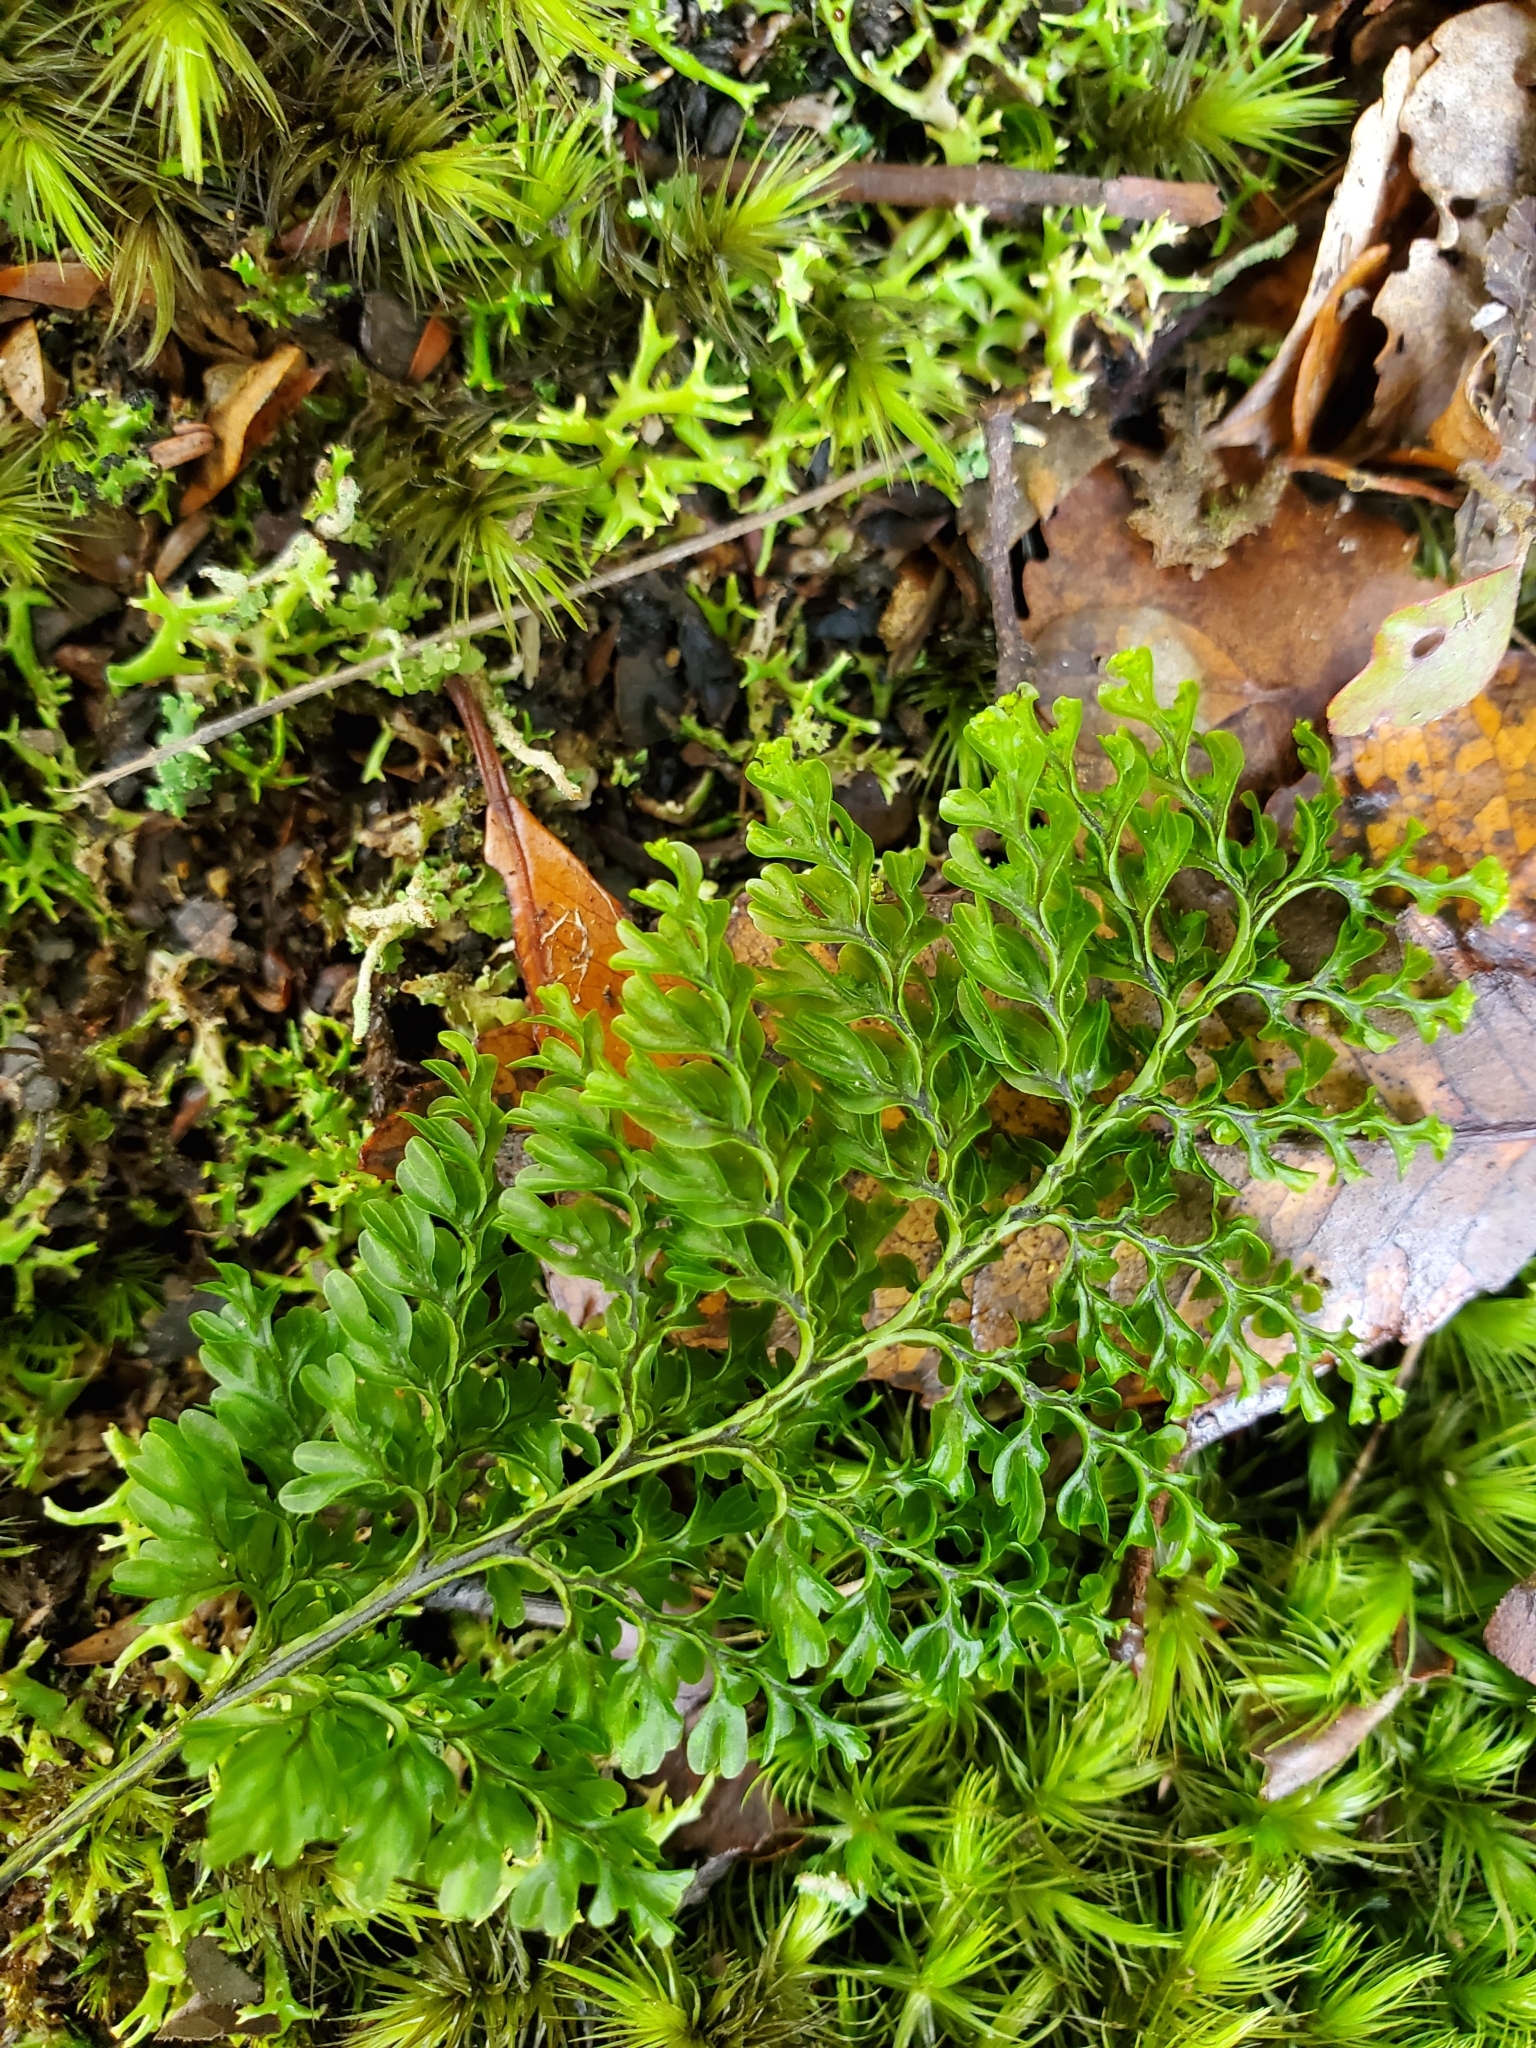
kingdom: Plantae
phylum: Tracheophyta
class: Polypodiopsida
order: Hymenophyllales
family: Hymenophyllaceae
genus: Hymenophyllum
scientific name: Hymenophyllum sanguinolentum
